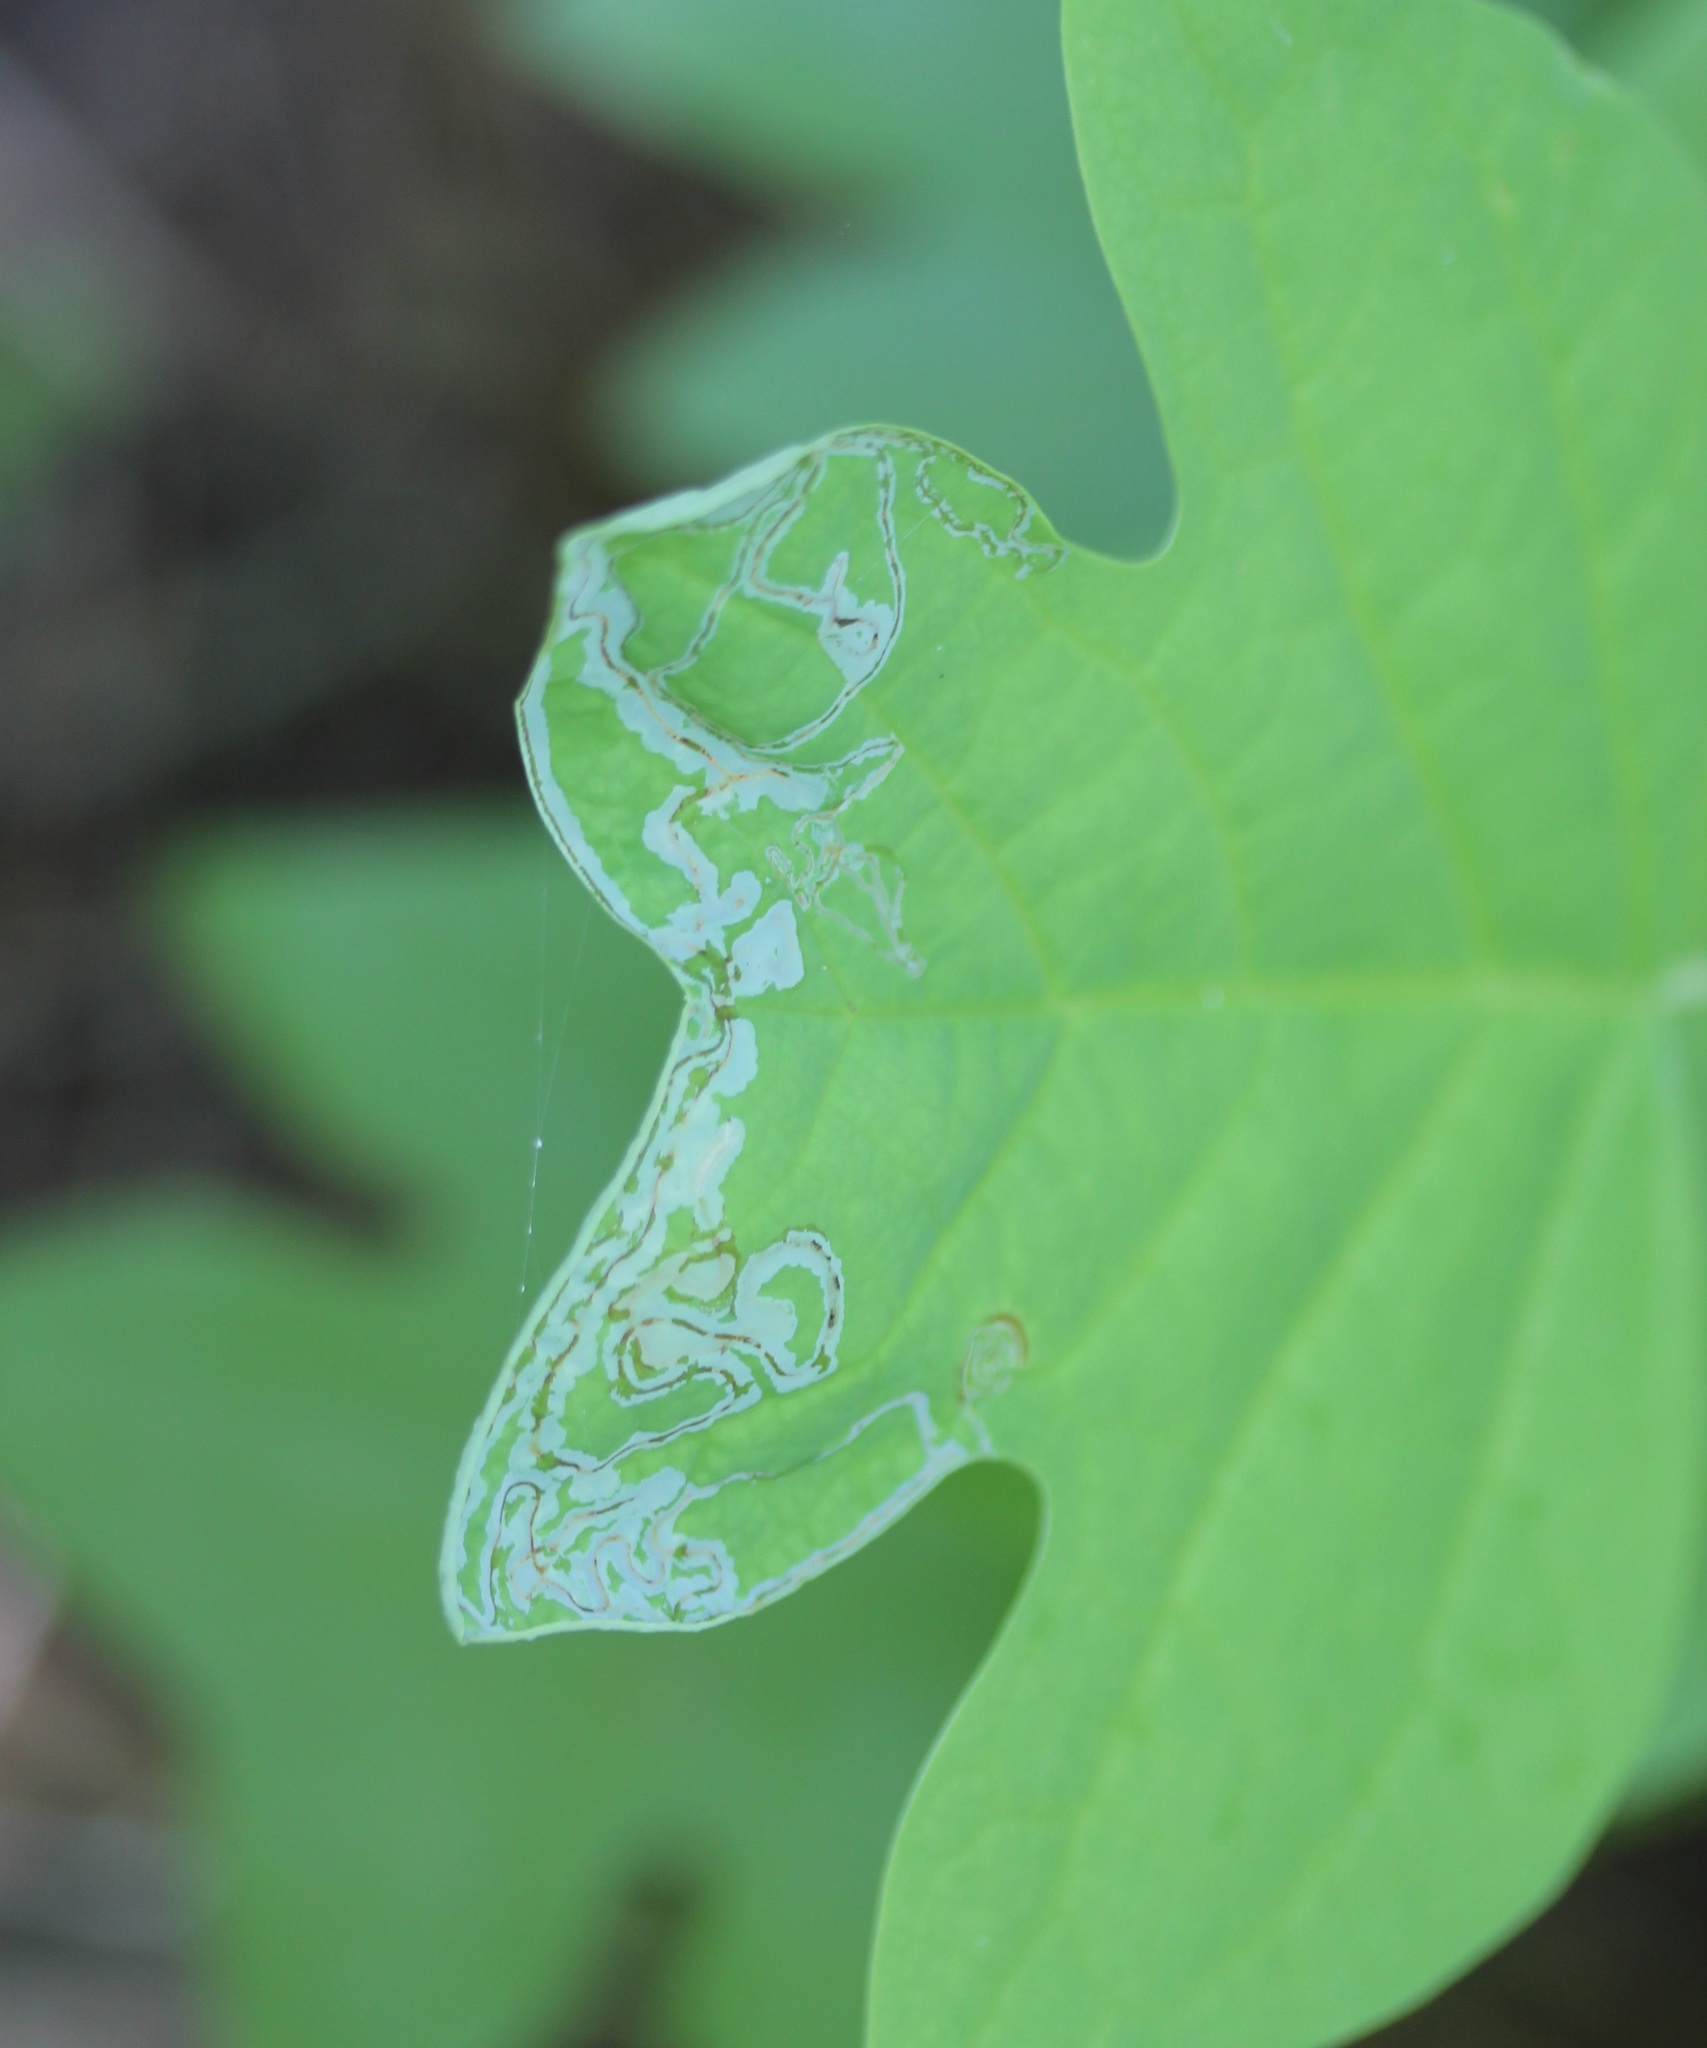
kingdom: Animalia
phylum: Arthropoda
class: Insecta
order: Lepidoptera
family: Gracillariidae
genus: Phyllocnistis
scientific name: Phyllocnistis liriodendronella
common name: Tulip tree leaf miner
